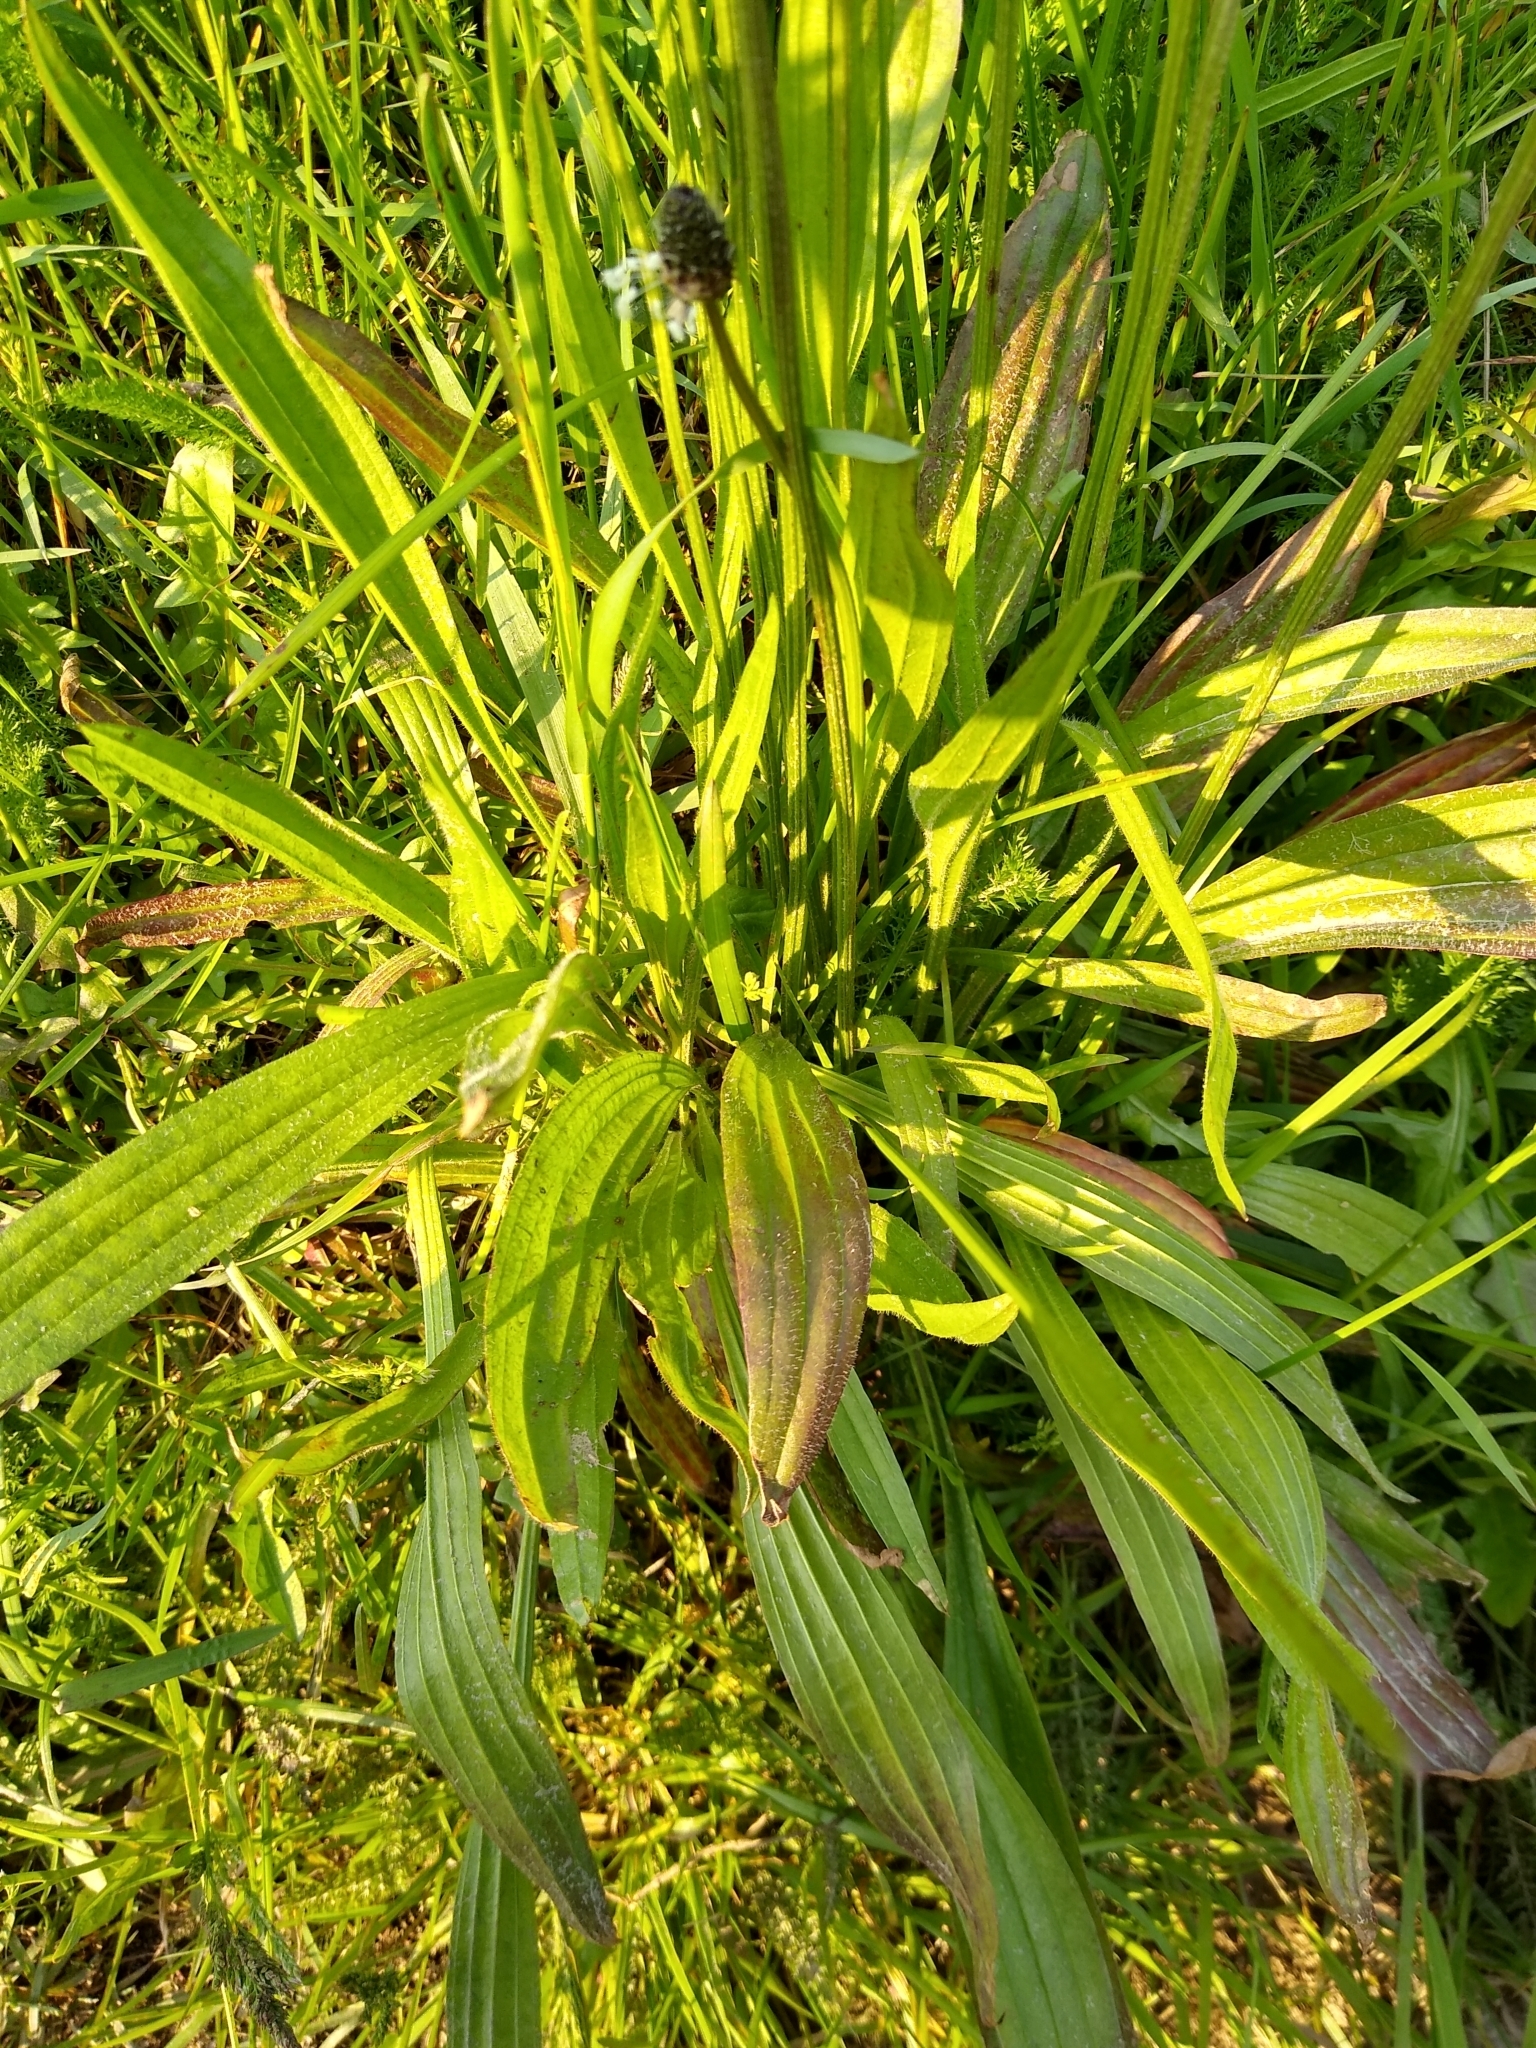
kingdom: Plantae
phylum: Tracheophyta
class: Magnoliopsida
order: Lamiales
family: Plantaginaceae
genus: Plantago
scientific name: Plantago lanceolata
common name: Ribwort plantain
